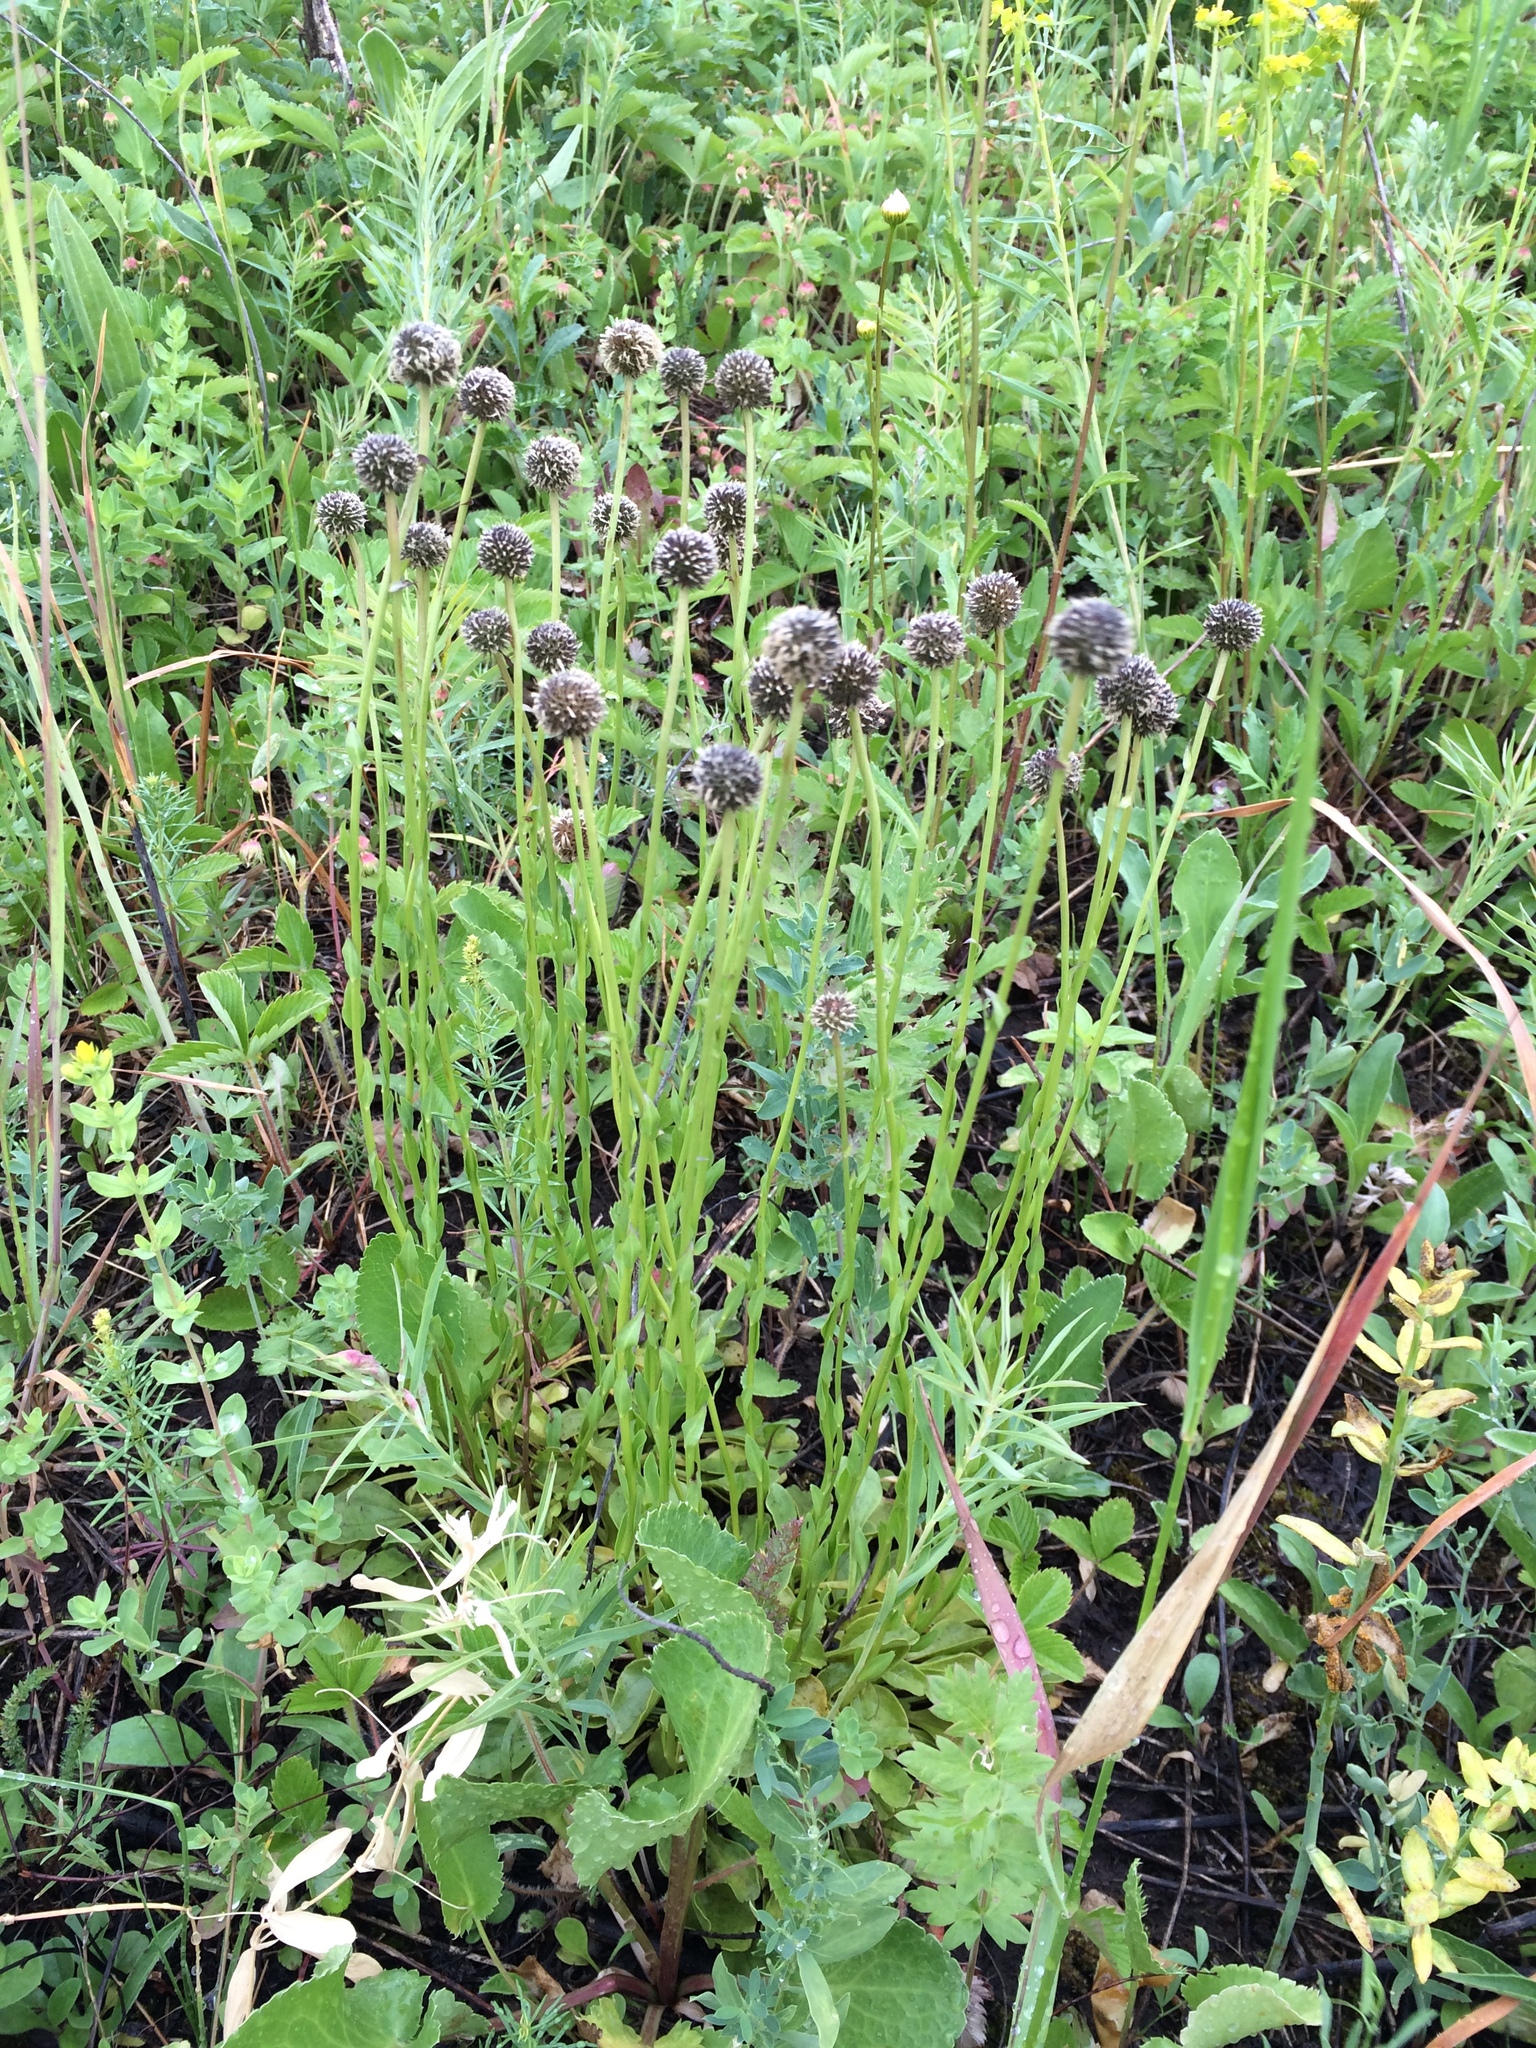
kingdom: Plantae
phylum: Tracheophyta
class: Magnoliopsida
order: Lamiales
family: Plantaginaceae
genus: Globularia
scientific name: Globularia bisnagarica
